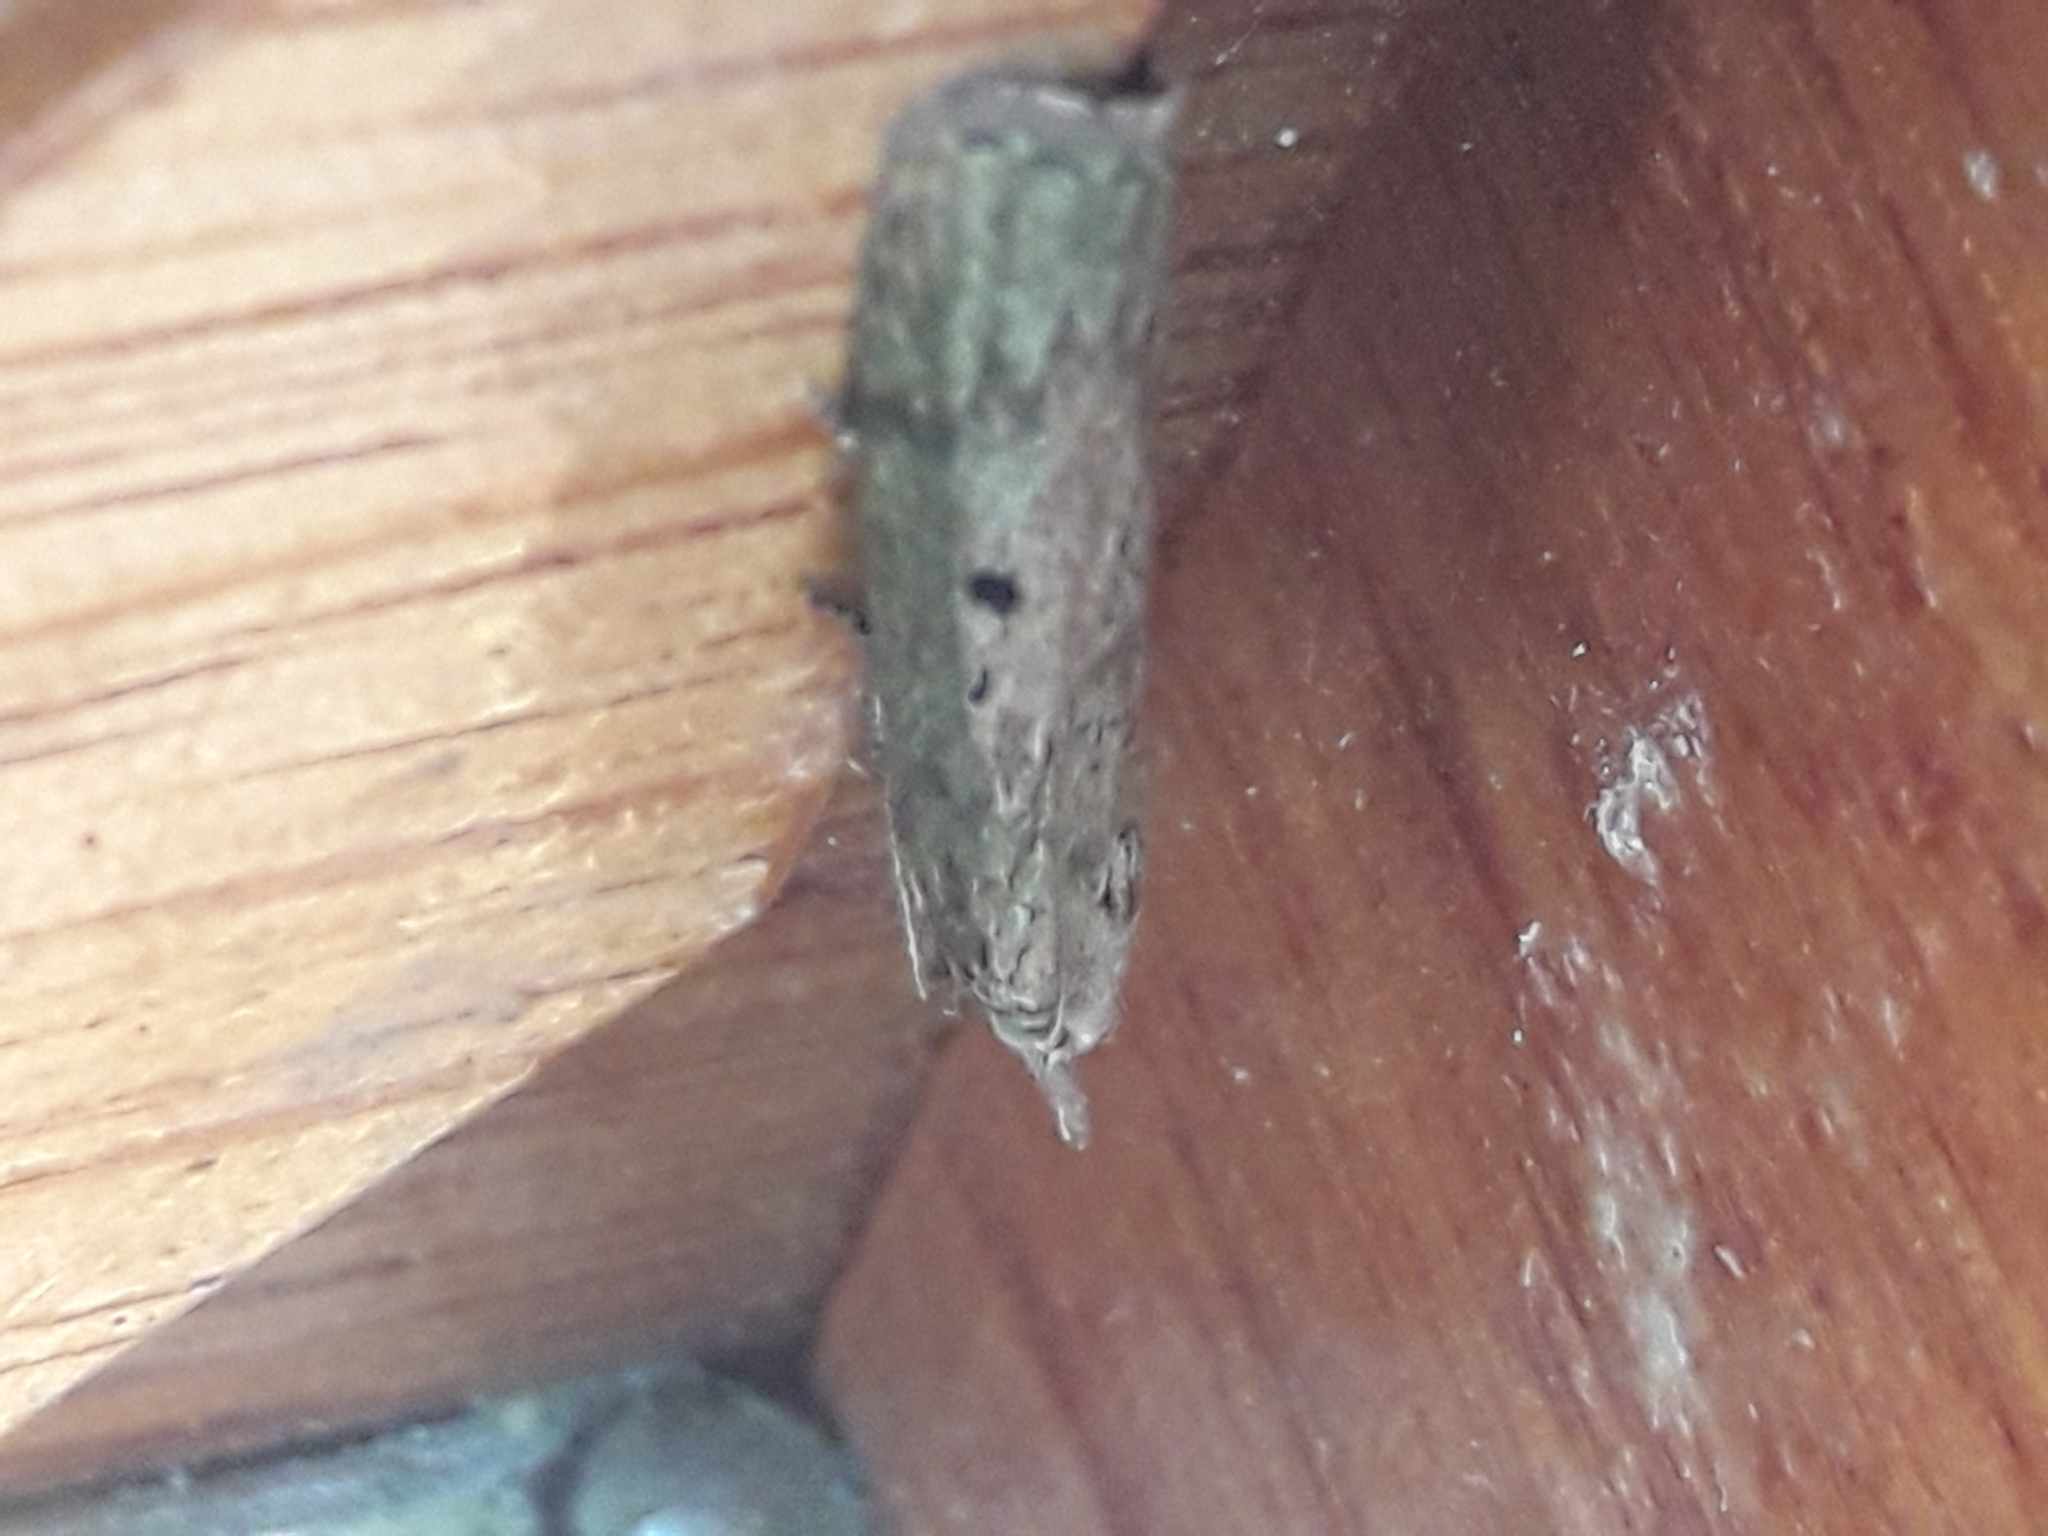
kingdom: Animalia
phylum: Arthropoda
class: Insecta
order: Lepidoptera
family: Pyralidae
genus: Aphomia
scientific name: Aphomia sociella
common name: Bee moth
